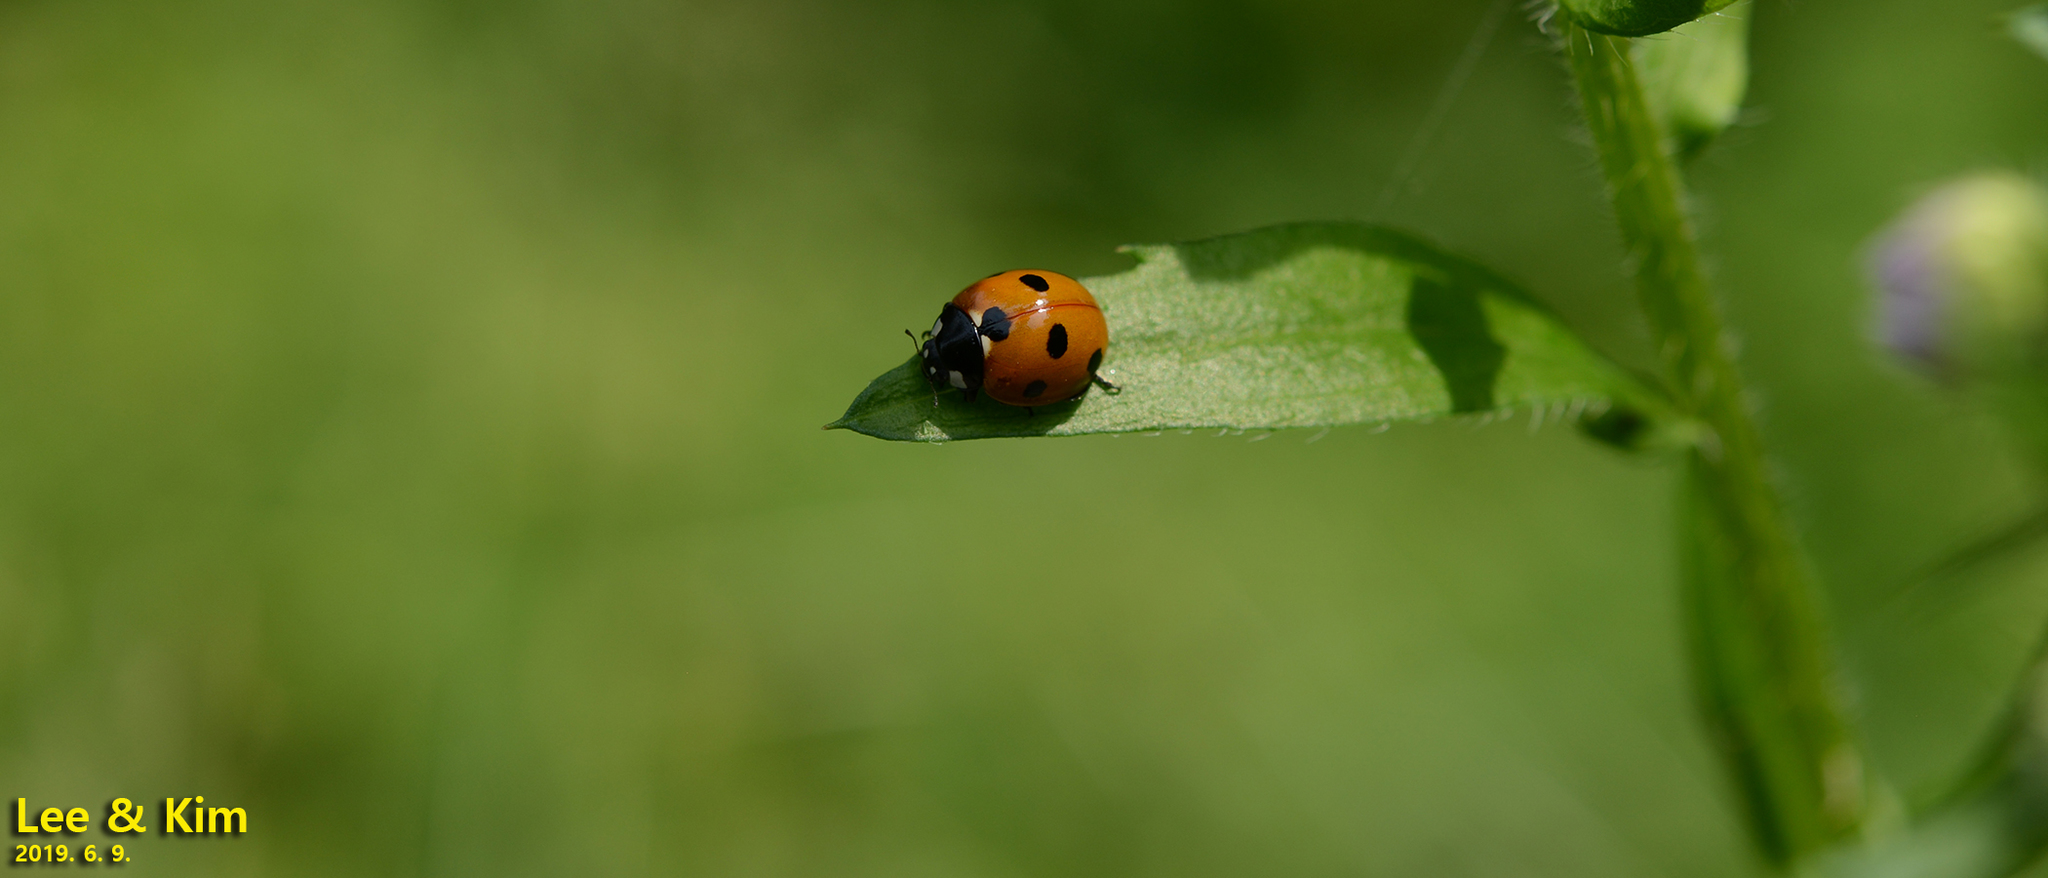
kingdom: Animalia
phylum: Arthropoda
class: Insecta
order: Coleoptera
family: Coccinellidae
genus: Coccinella
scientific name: Coccinella septempunctata
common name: Sevenspotted lady beetle
